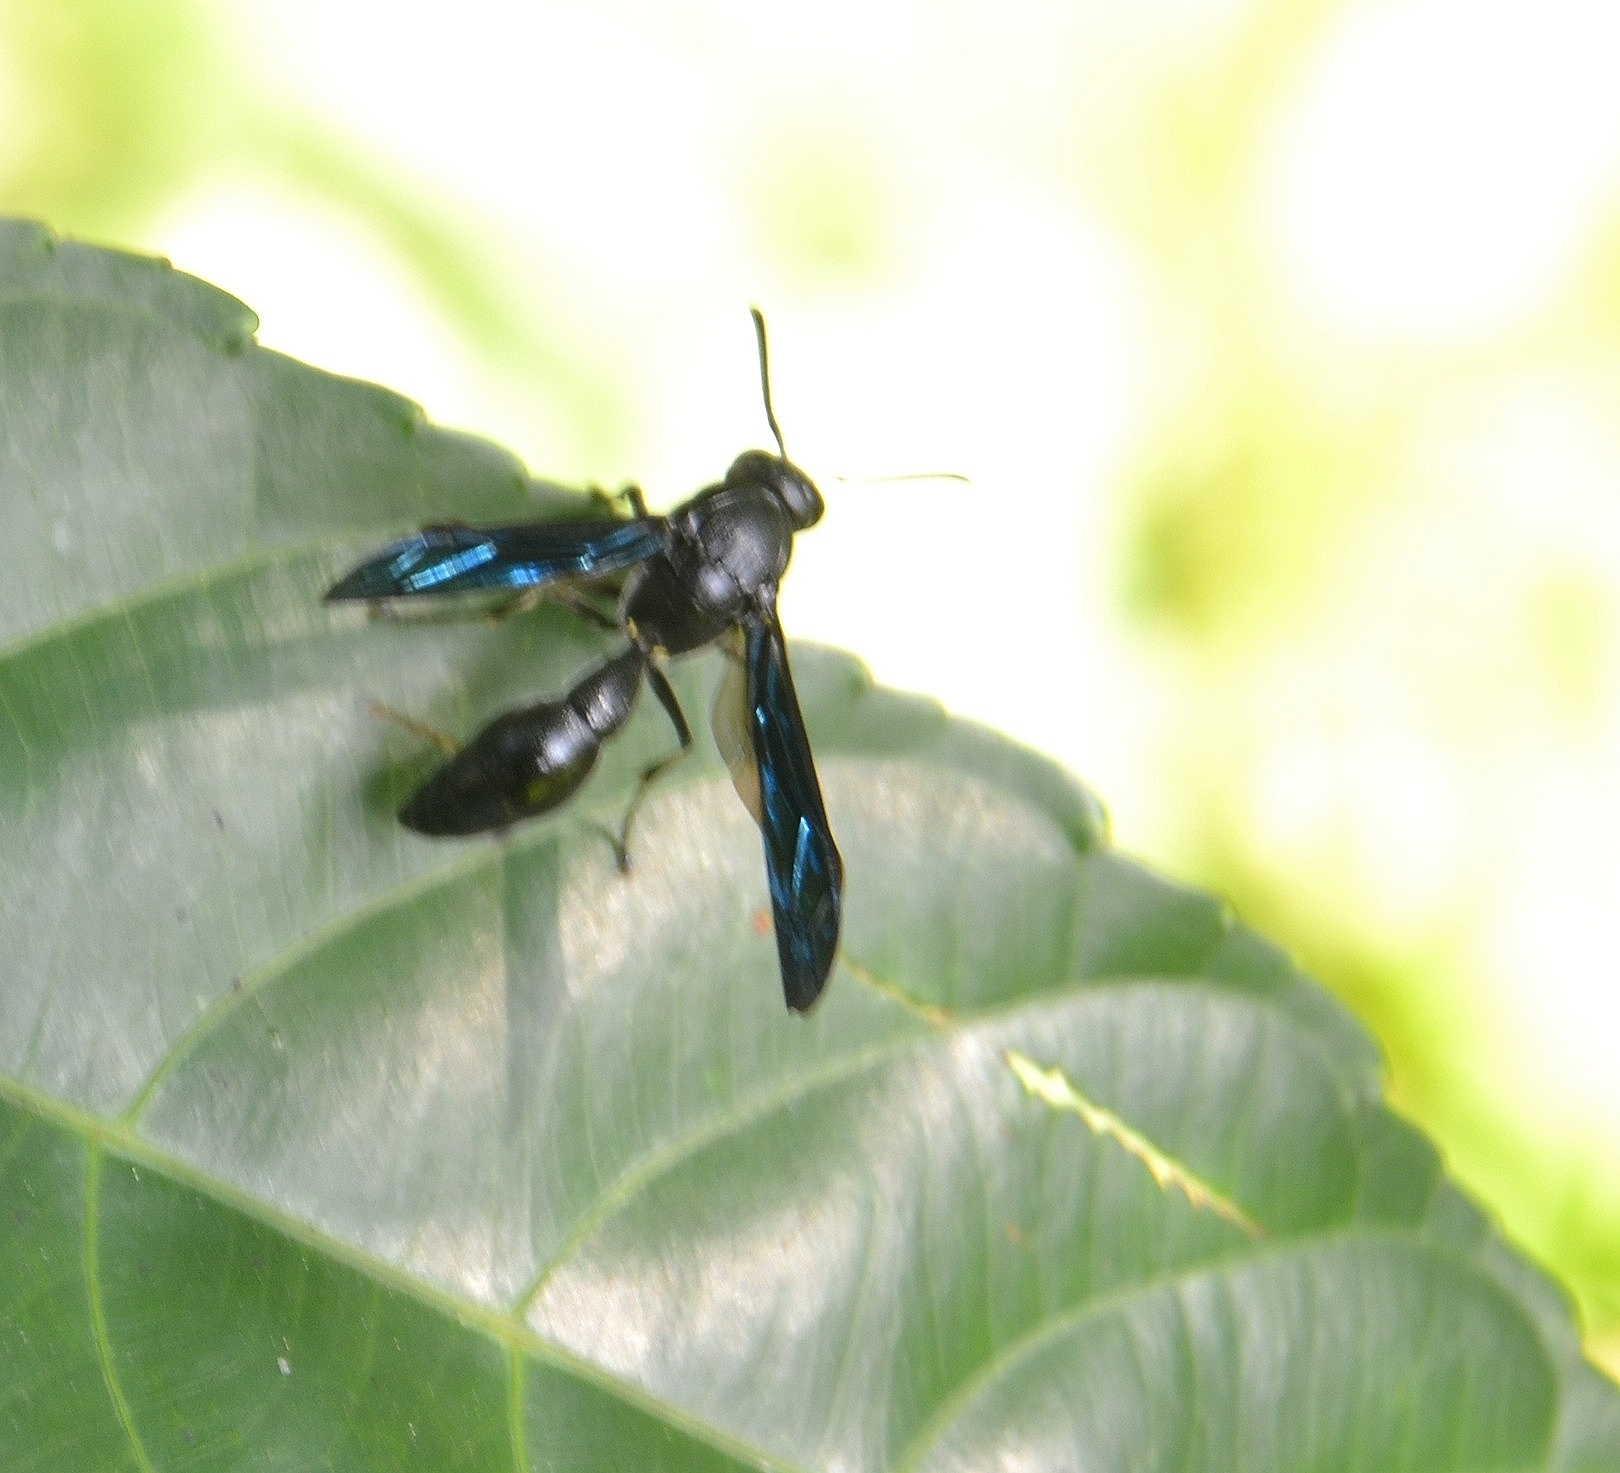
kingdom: Animalia
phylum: Arthropoda
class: Insecta
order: Hymenoptera
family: Eumenidae
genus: Pseudozumia
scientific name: Pseudozumia indica
